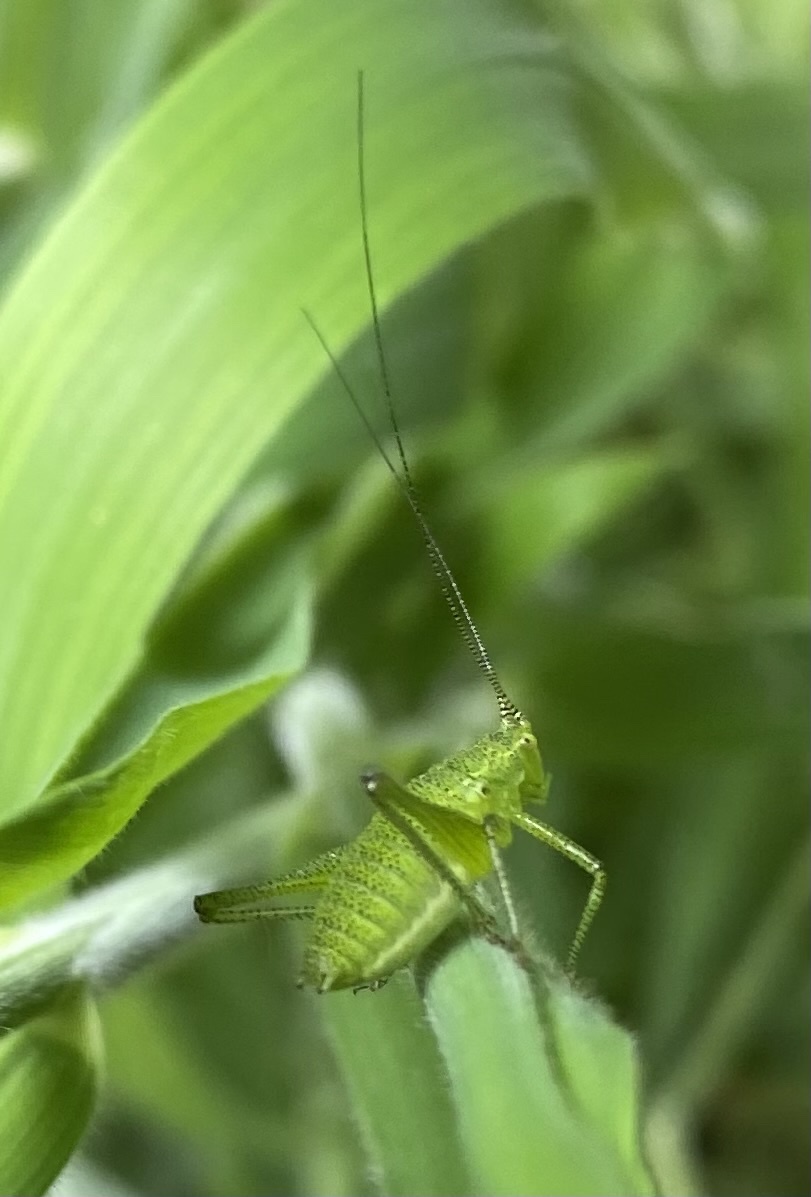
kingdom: Animalia
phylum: Arthropoda
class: Insecta
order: Orthoptera
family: Tettigoniidae
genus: Leptophyes
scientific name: Leptophyes
